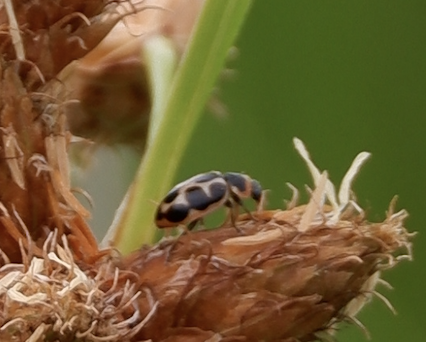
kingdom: Animalia
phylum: Arthropoda
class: Insecta
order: Coleoptera
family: Coccinellidae
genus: Naemia
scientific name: Naemia seriata
